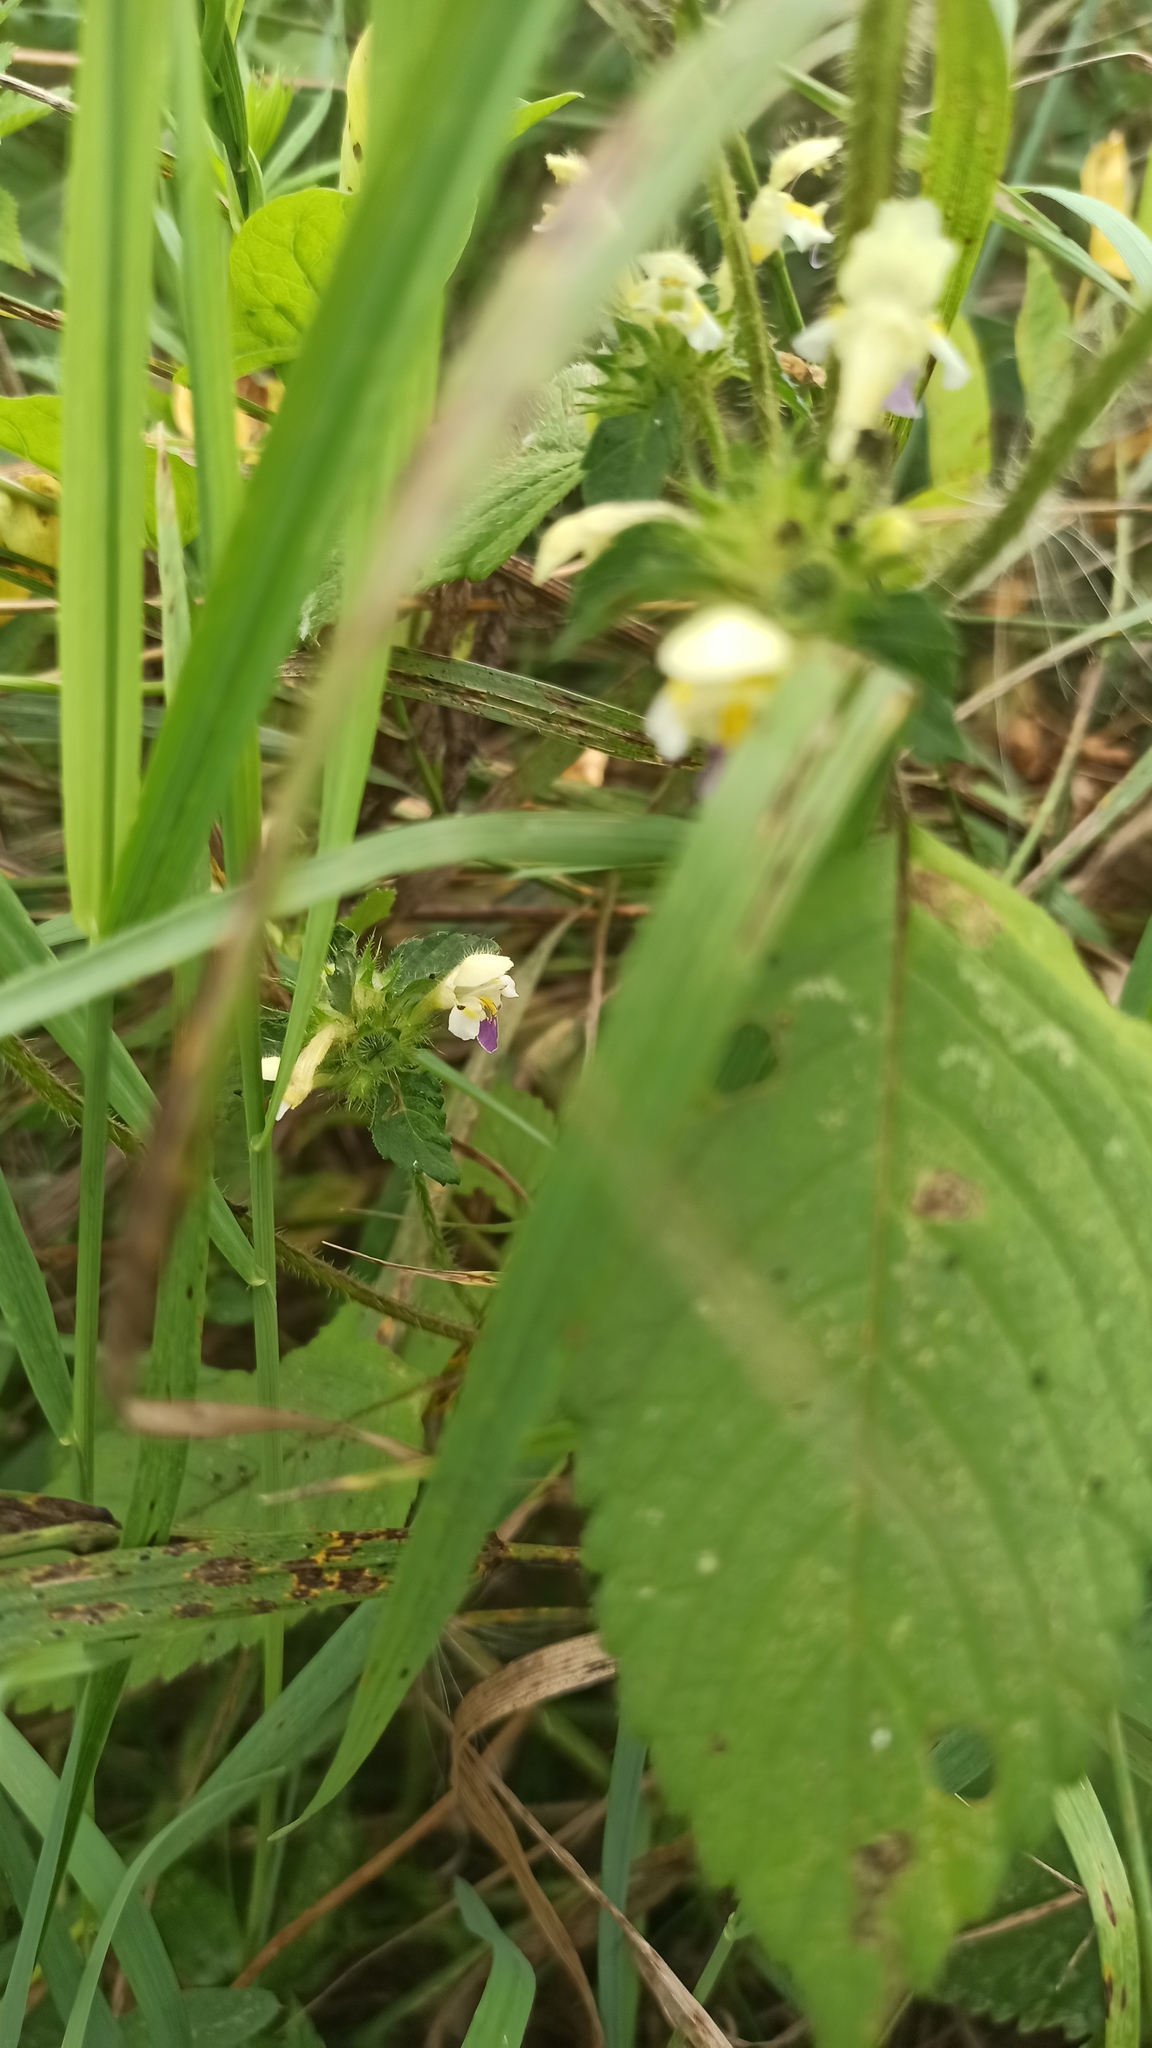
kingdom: Plantae
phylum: Tracheophyta
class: Magnoliopsida
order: Lamiales
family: Lamiaceae
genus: Galeopsis
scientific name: Galeopsis speciosa
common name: Large-flowered hemp-nettle
